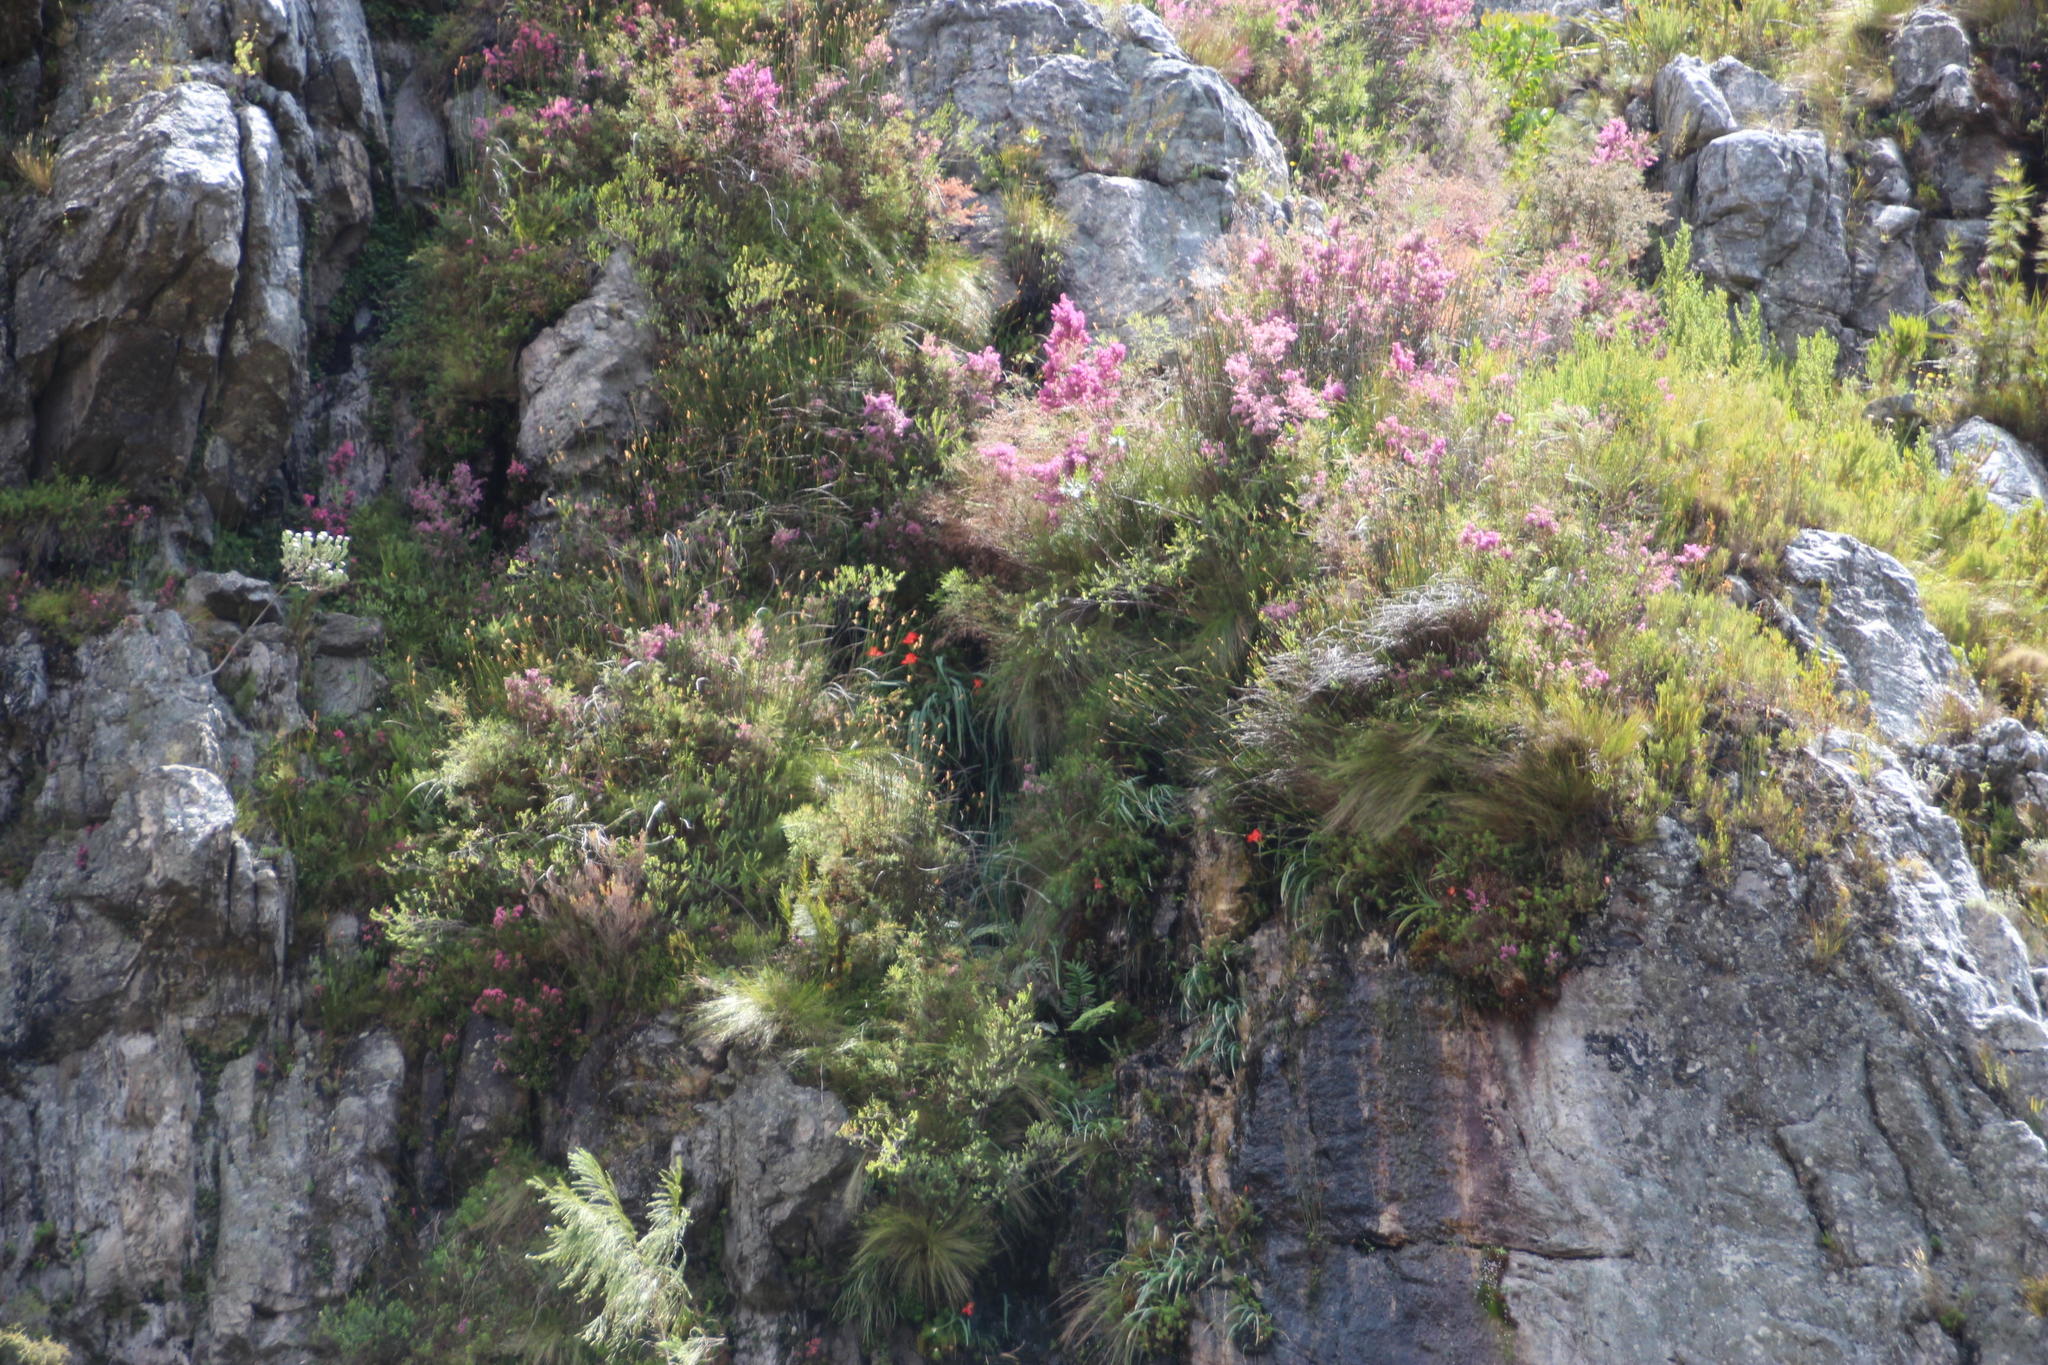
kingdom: Plantae
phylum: Tracheophyta
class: Liliopsida
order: Asparagales
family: Orchidaceae
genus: Disa
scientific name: Disa uniflora
